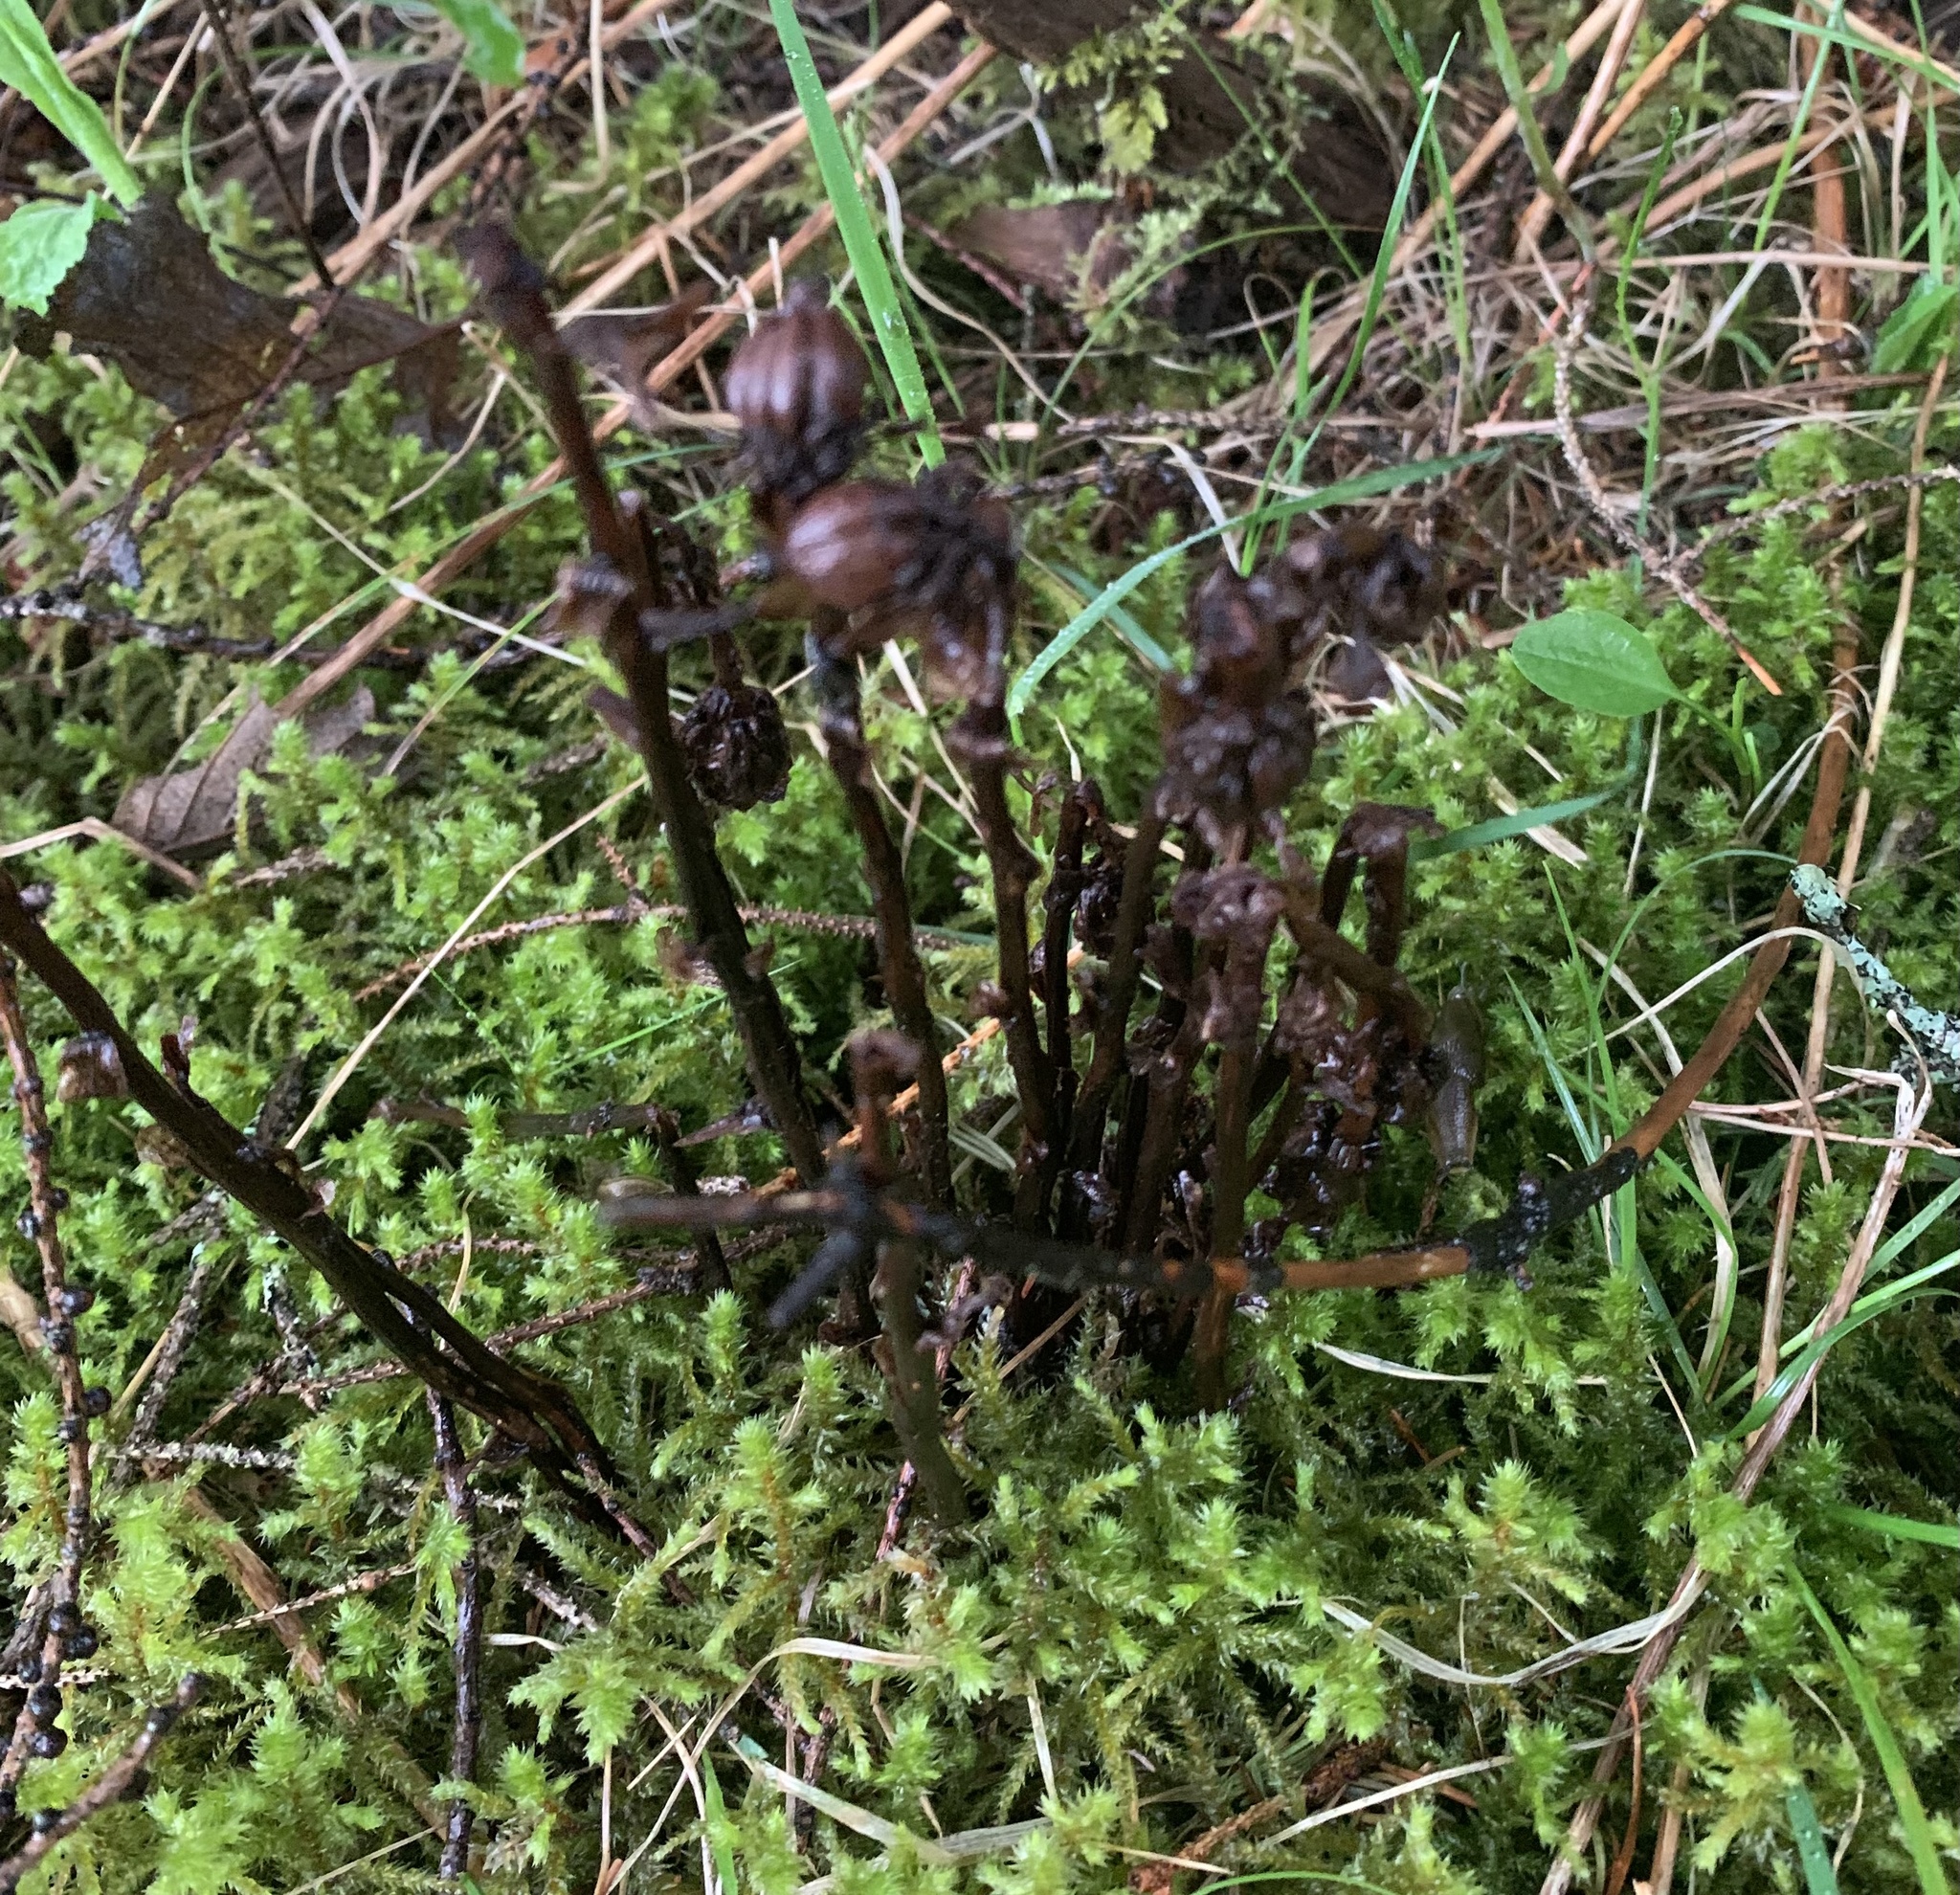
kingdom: Plantae
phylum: Tracheophyta
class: Magnoliopsida
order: Ericales
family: Ericaceae
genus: Monotropa
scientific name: Monotropa uniflora
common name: Convulsion root
